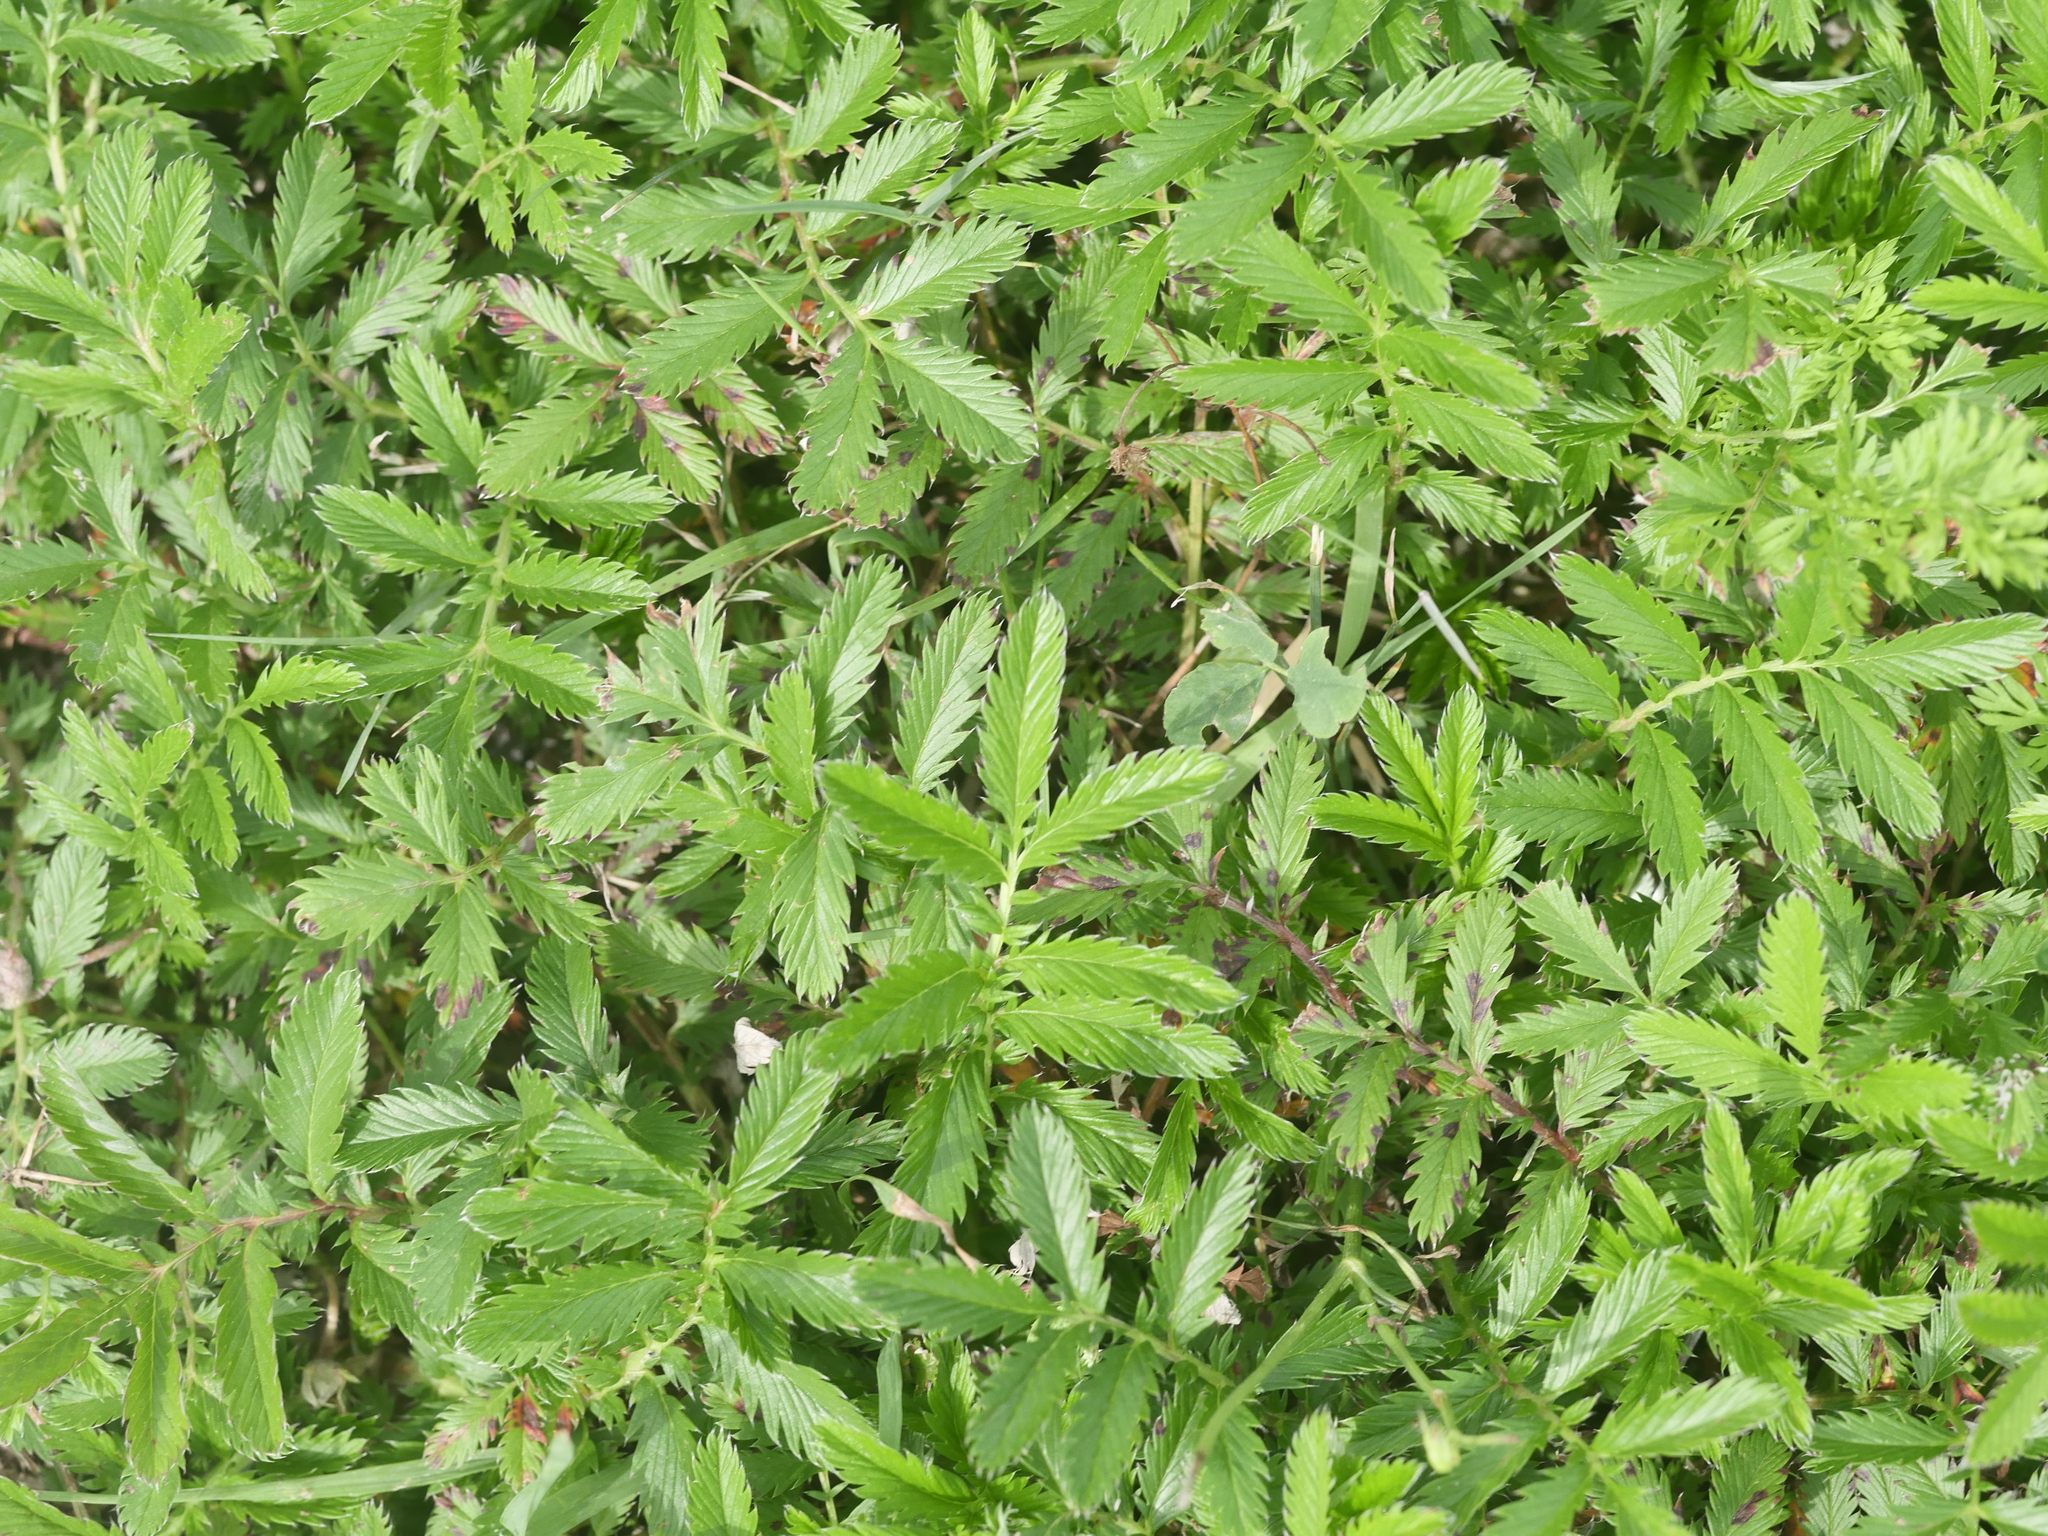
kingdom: Plantae
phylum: Tracheophyta
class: Magnoliopsida
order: Rosales
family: Rosaceae
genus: Argentina
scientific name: Argentina anserina
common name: Common silverweed
